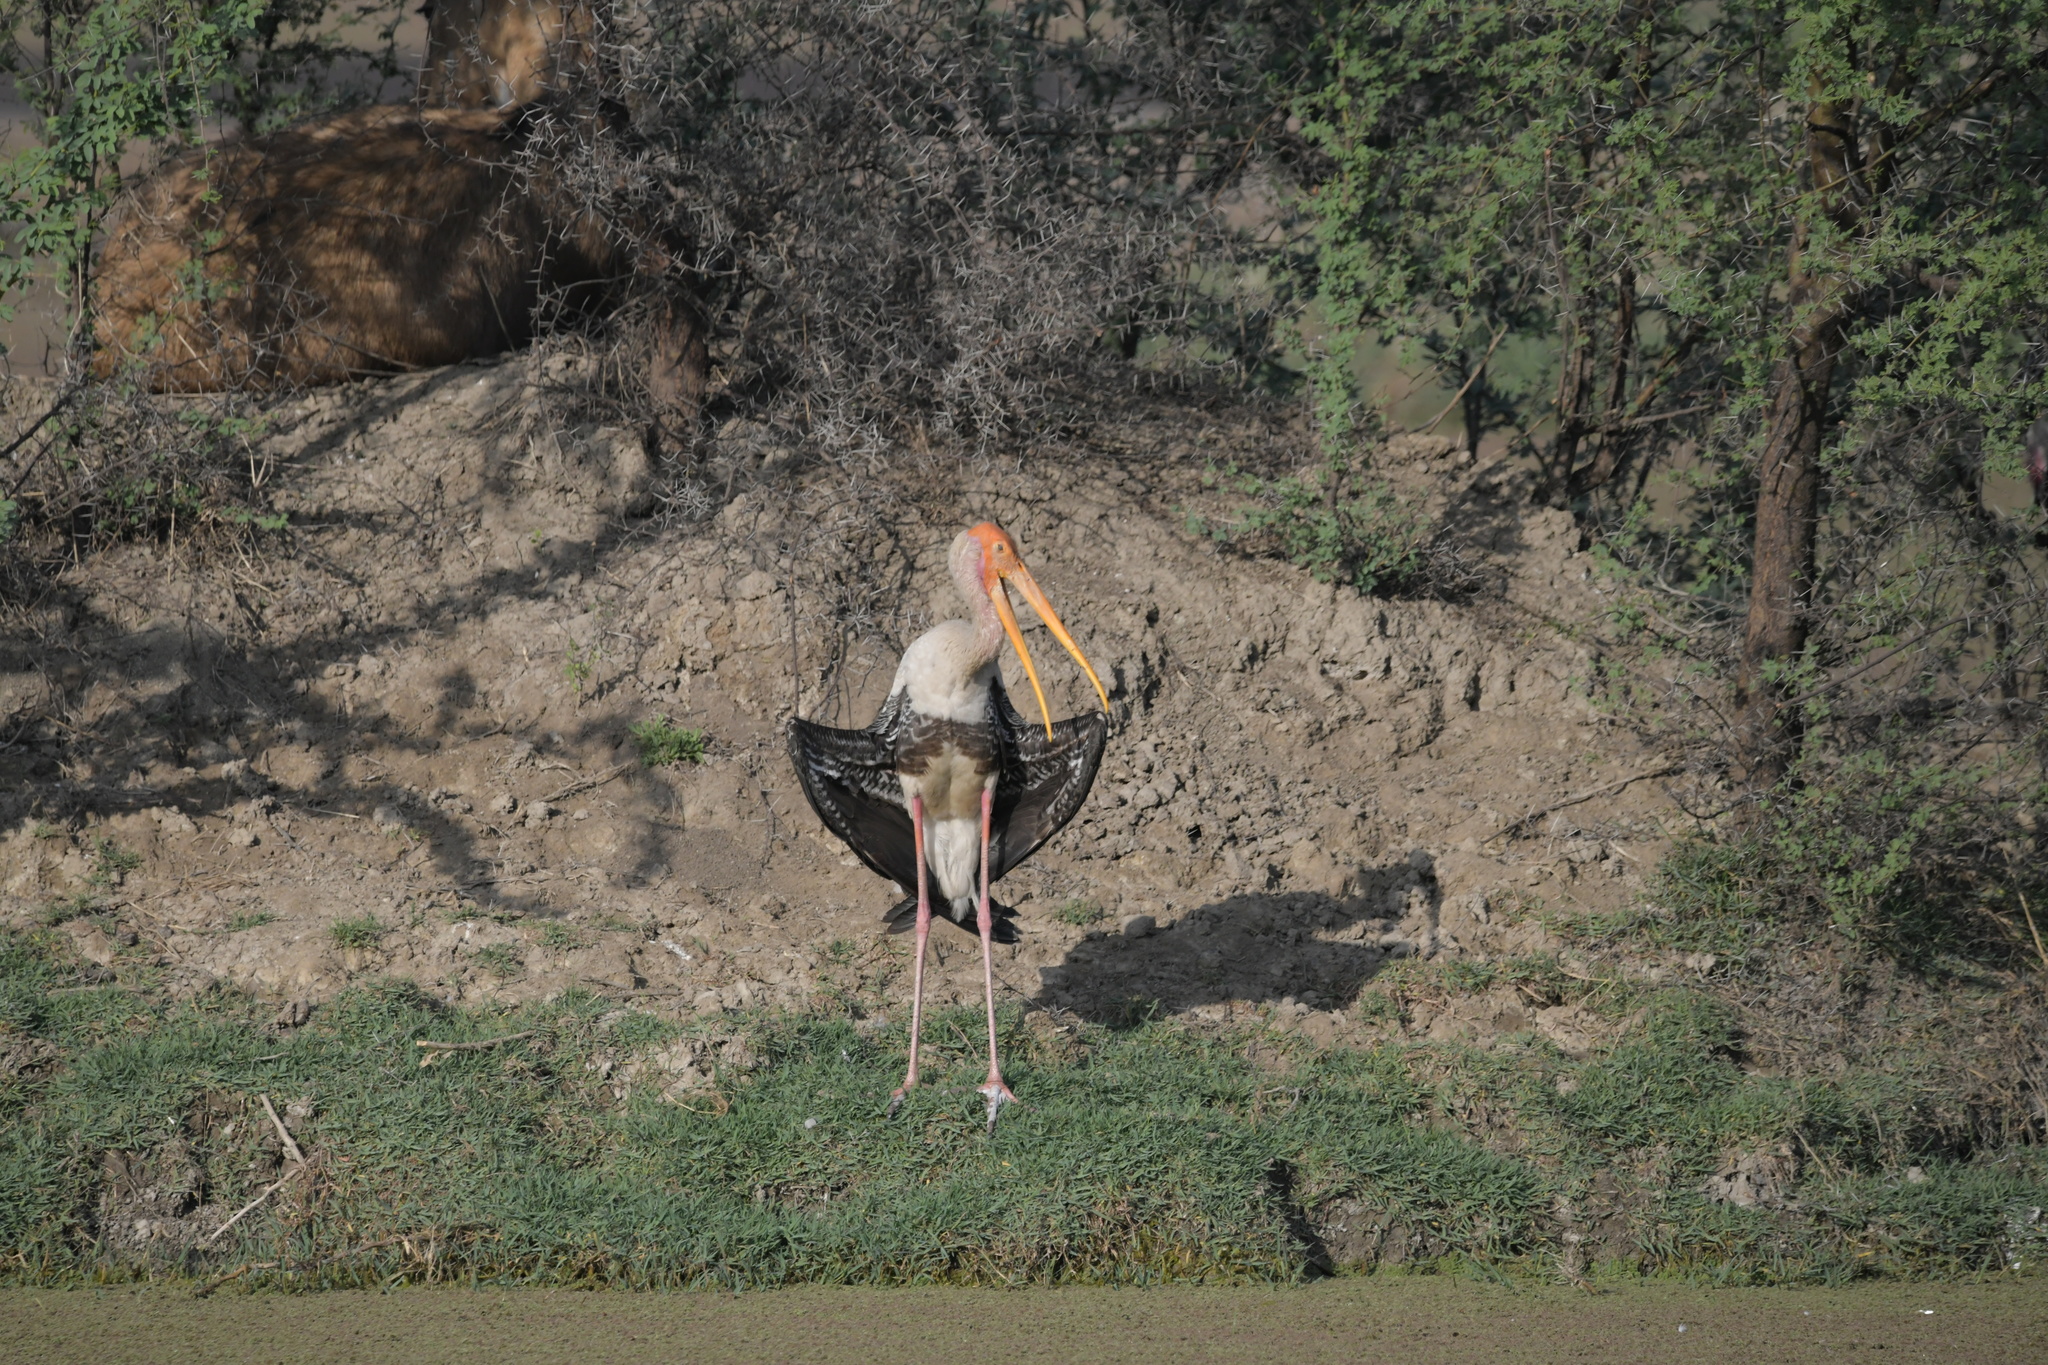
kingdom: Animalia
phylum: Chordata
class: Aves
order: Ciconiiformes
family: Ciconiidae
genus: Mycteria
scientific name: Mycteria leucocephala
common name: Painted stork
